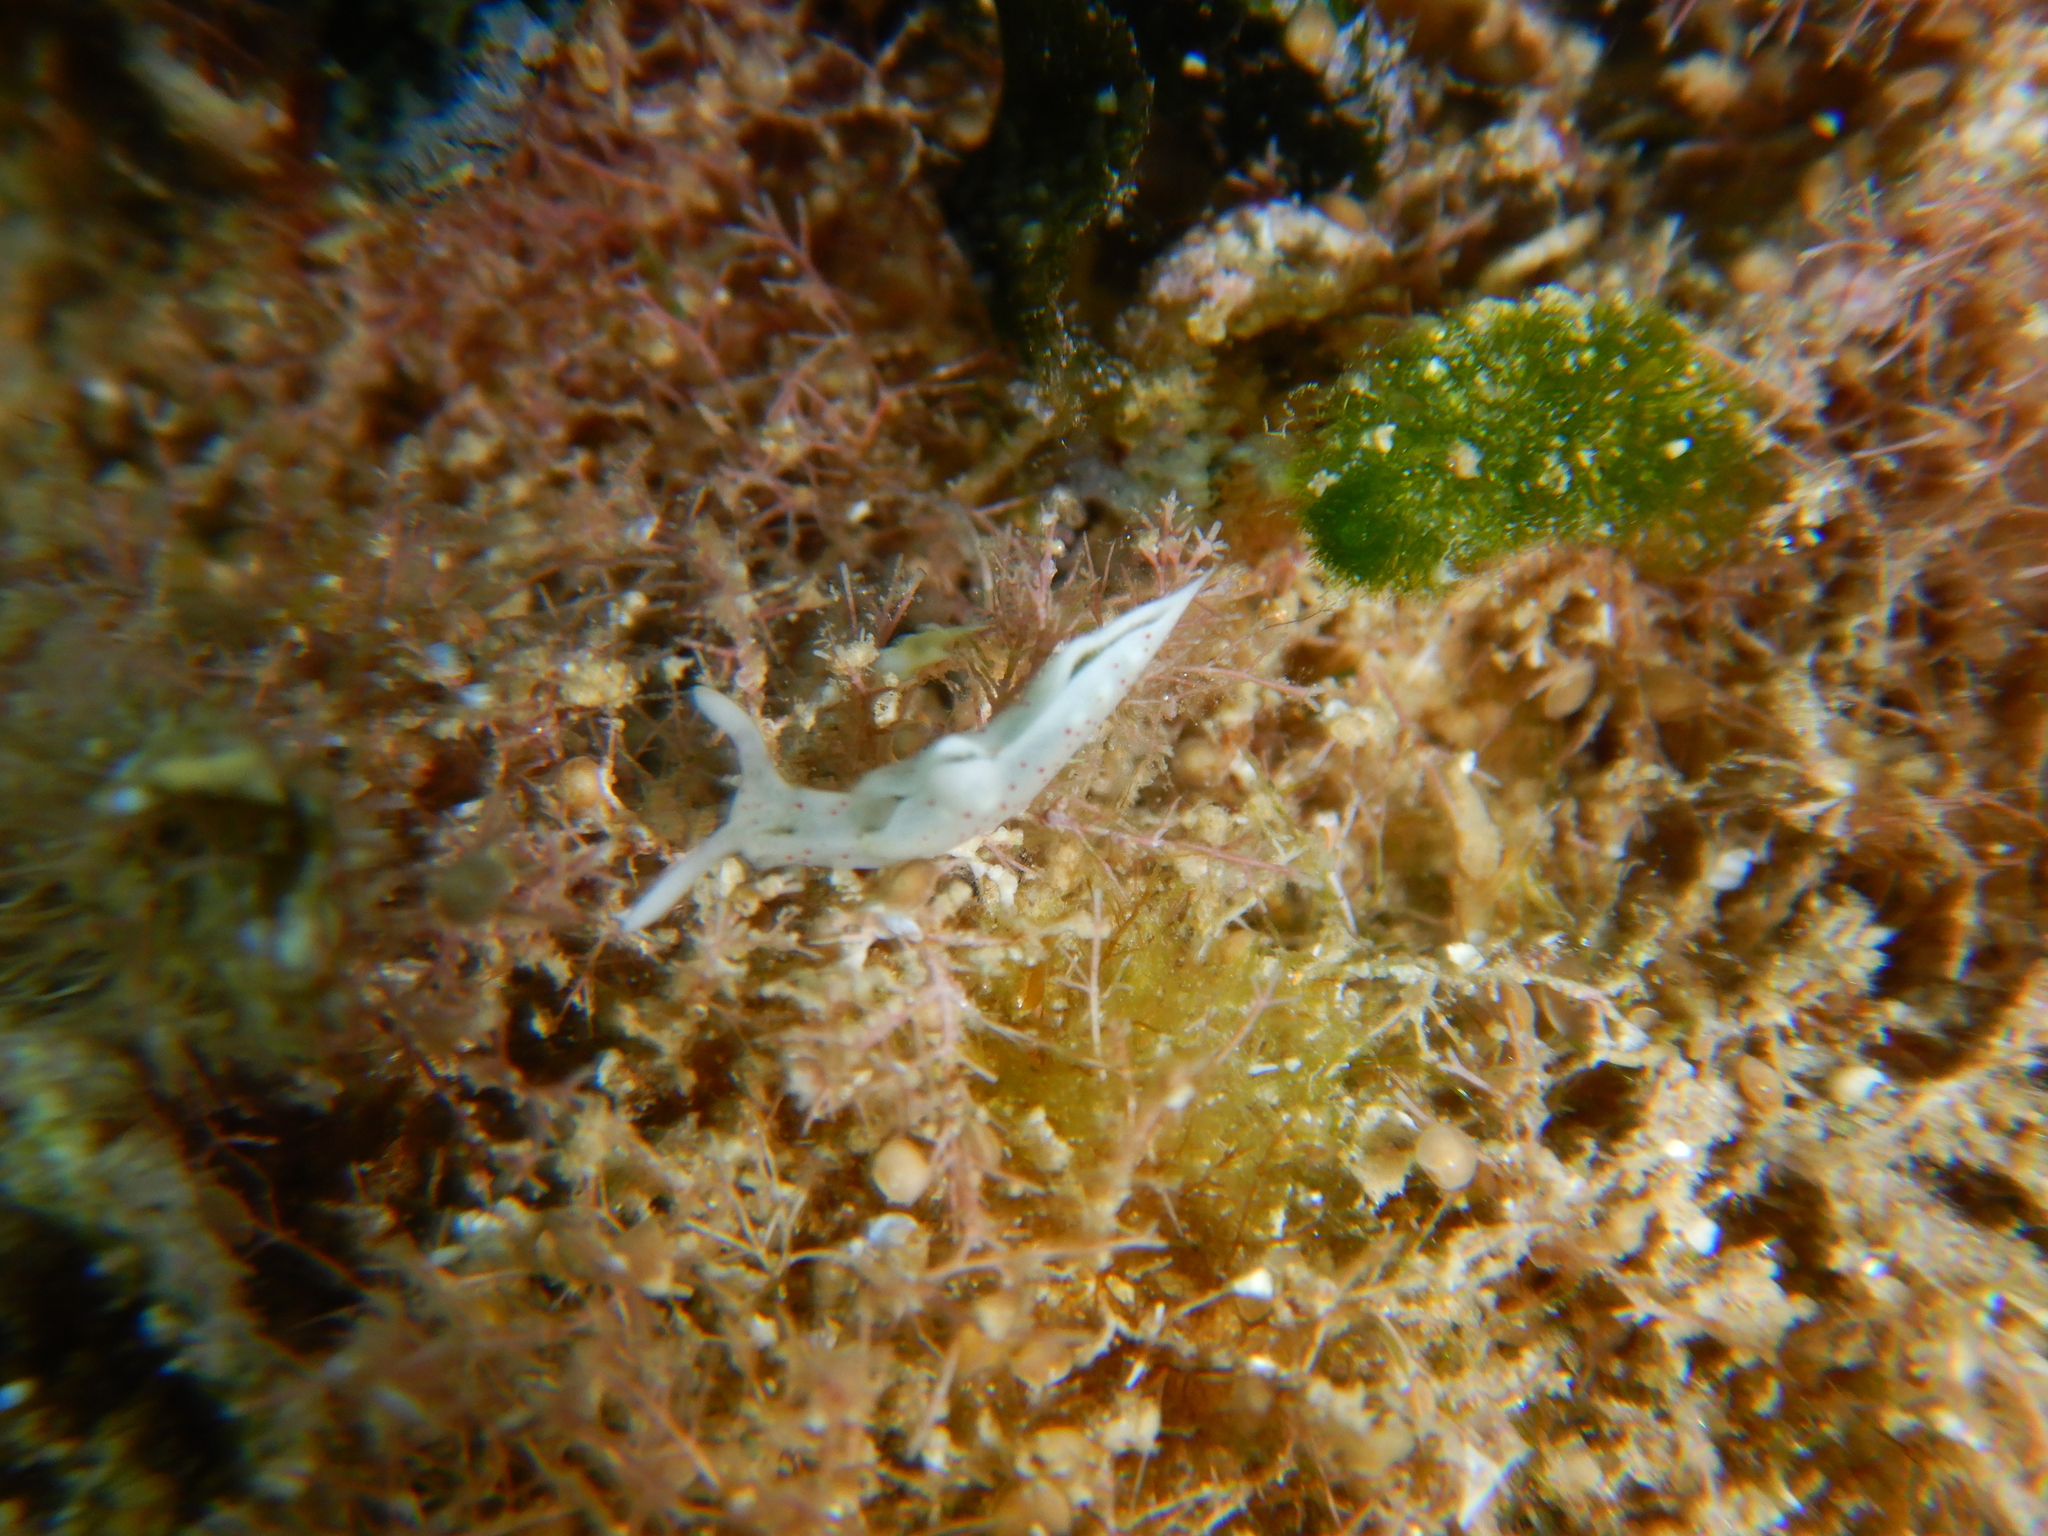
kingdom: Animalia
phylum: Mollusca
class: Gastropoda
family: Plakobranchidae
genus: Elysia
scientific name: Elysia timida
